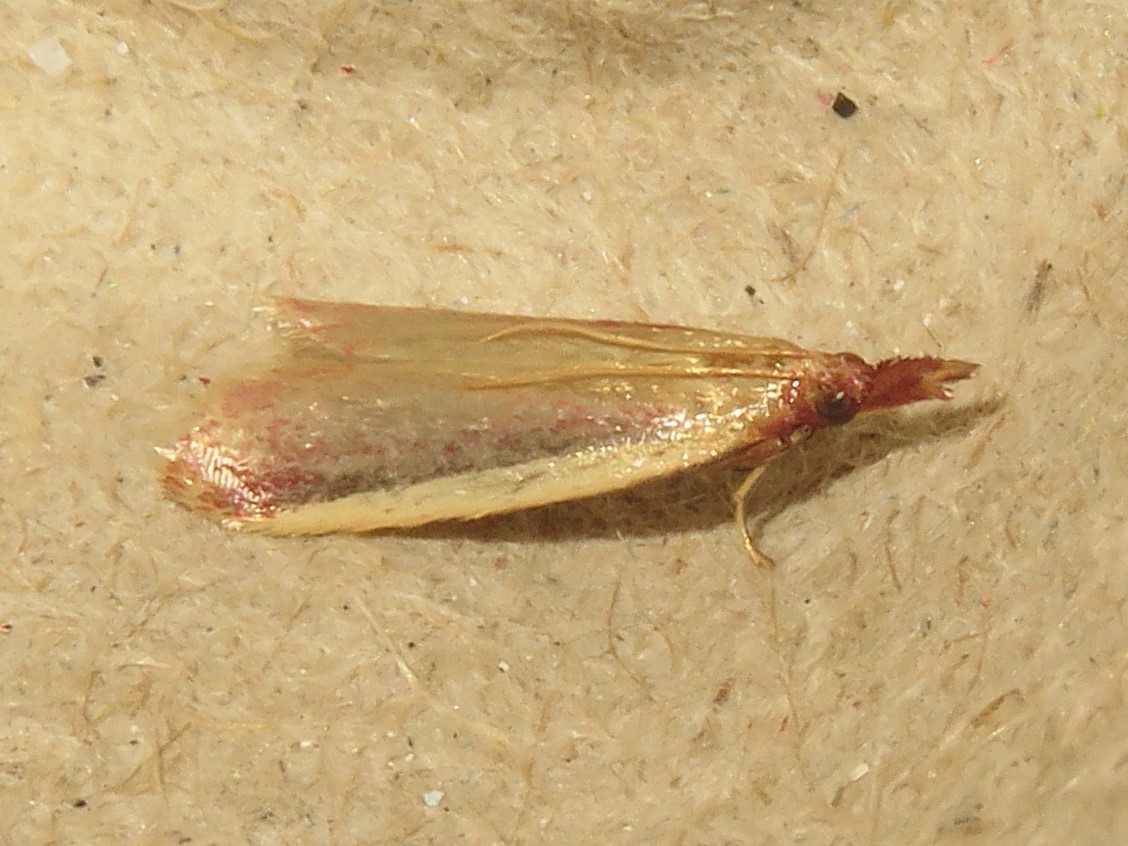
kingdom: Animalia
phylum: Arthropoda
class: Insecta
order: Lepidoptera
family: Pyralidae
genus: Peoria
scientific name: Peoria approximella
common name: Carmine snout
